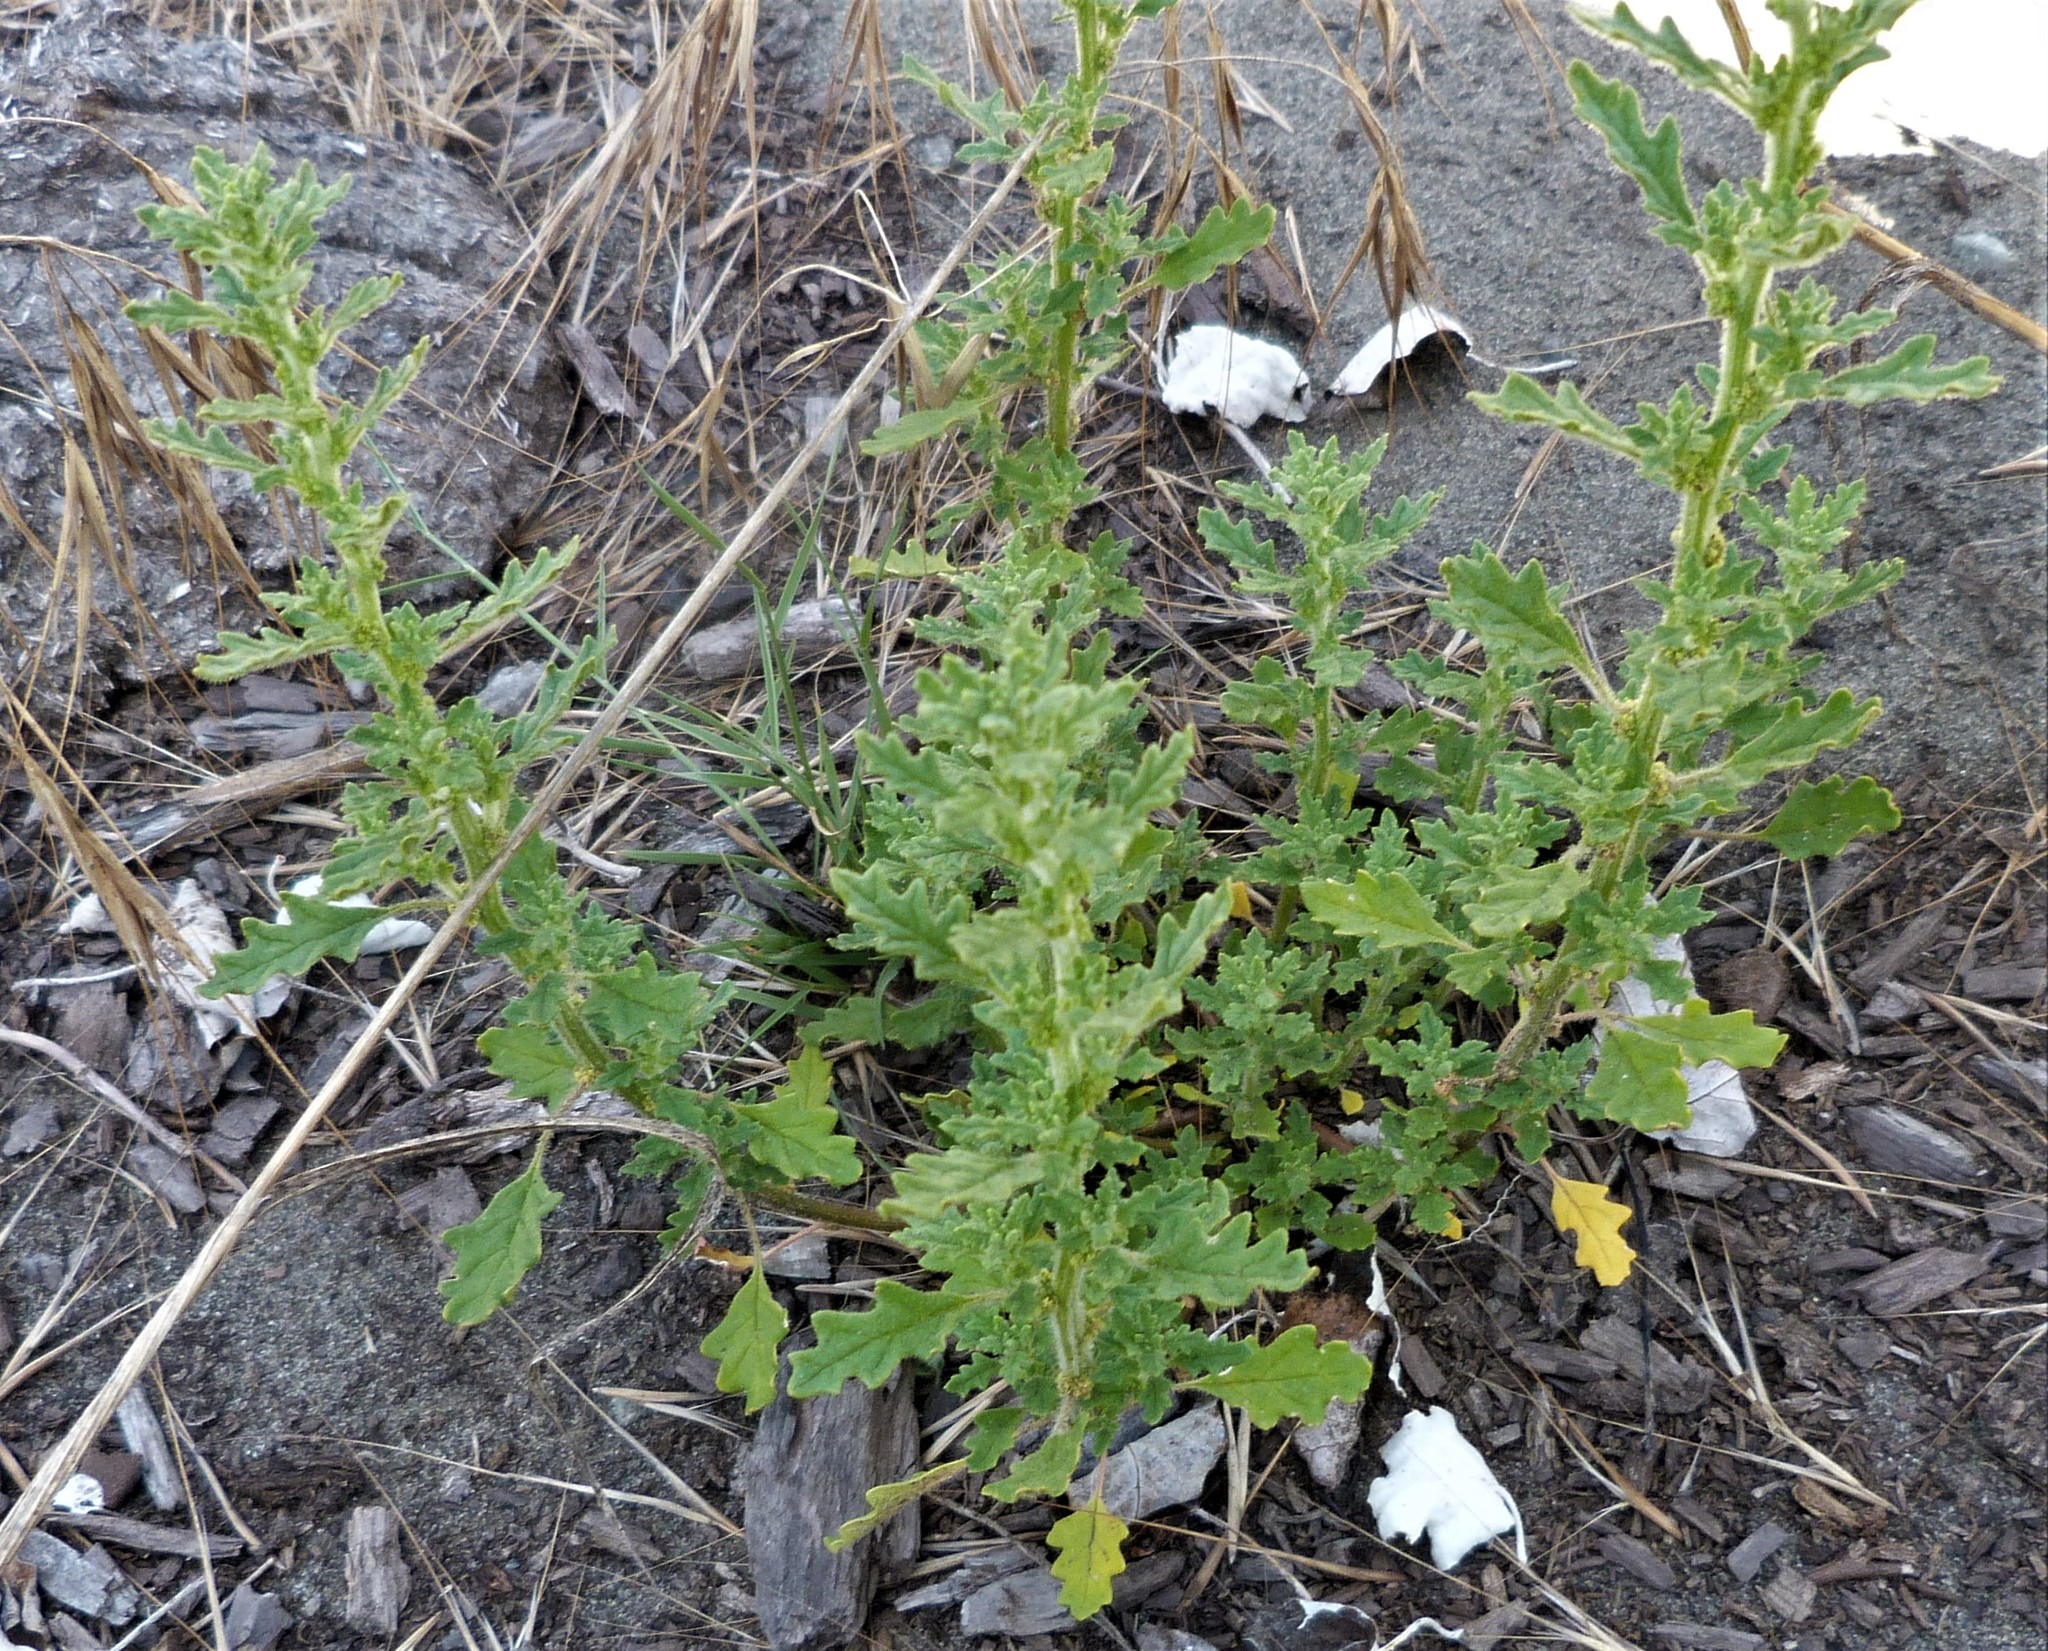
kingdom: Plantae
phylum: Tracheophyta
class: Magnoliopsida
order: Caryophyllales
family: Amaranthaceae
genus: Dysphania
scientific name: Dysphania pumilio
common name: Clammy goosefoot
